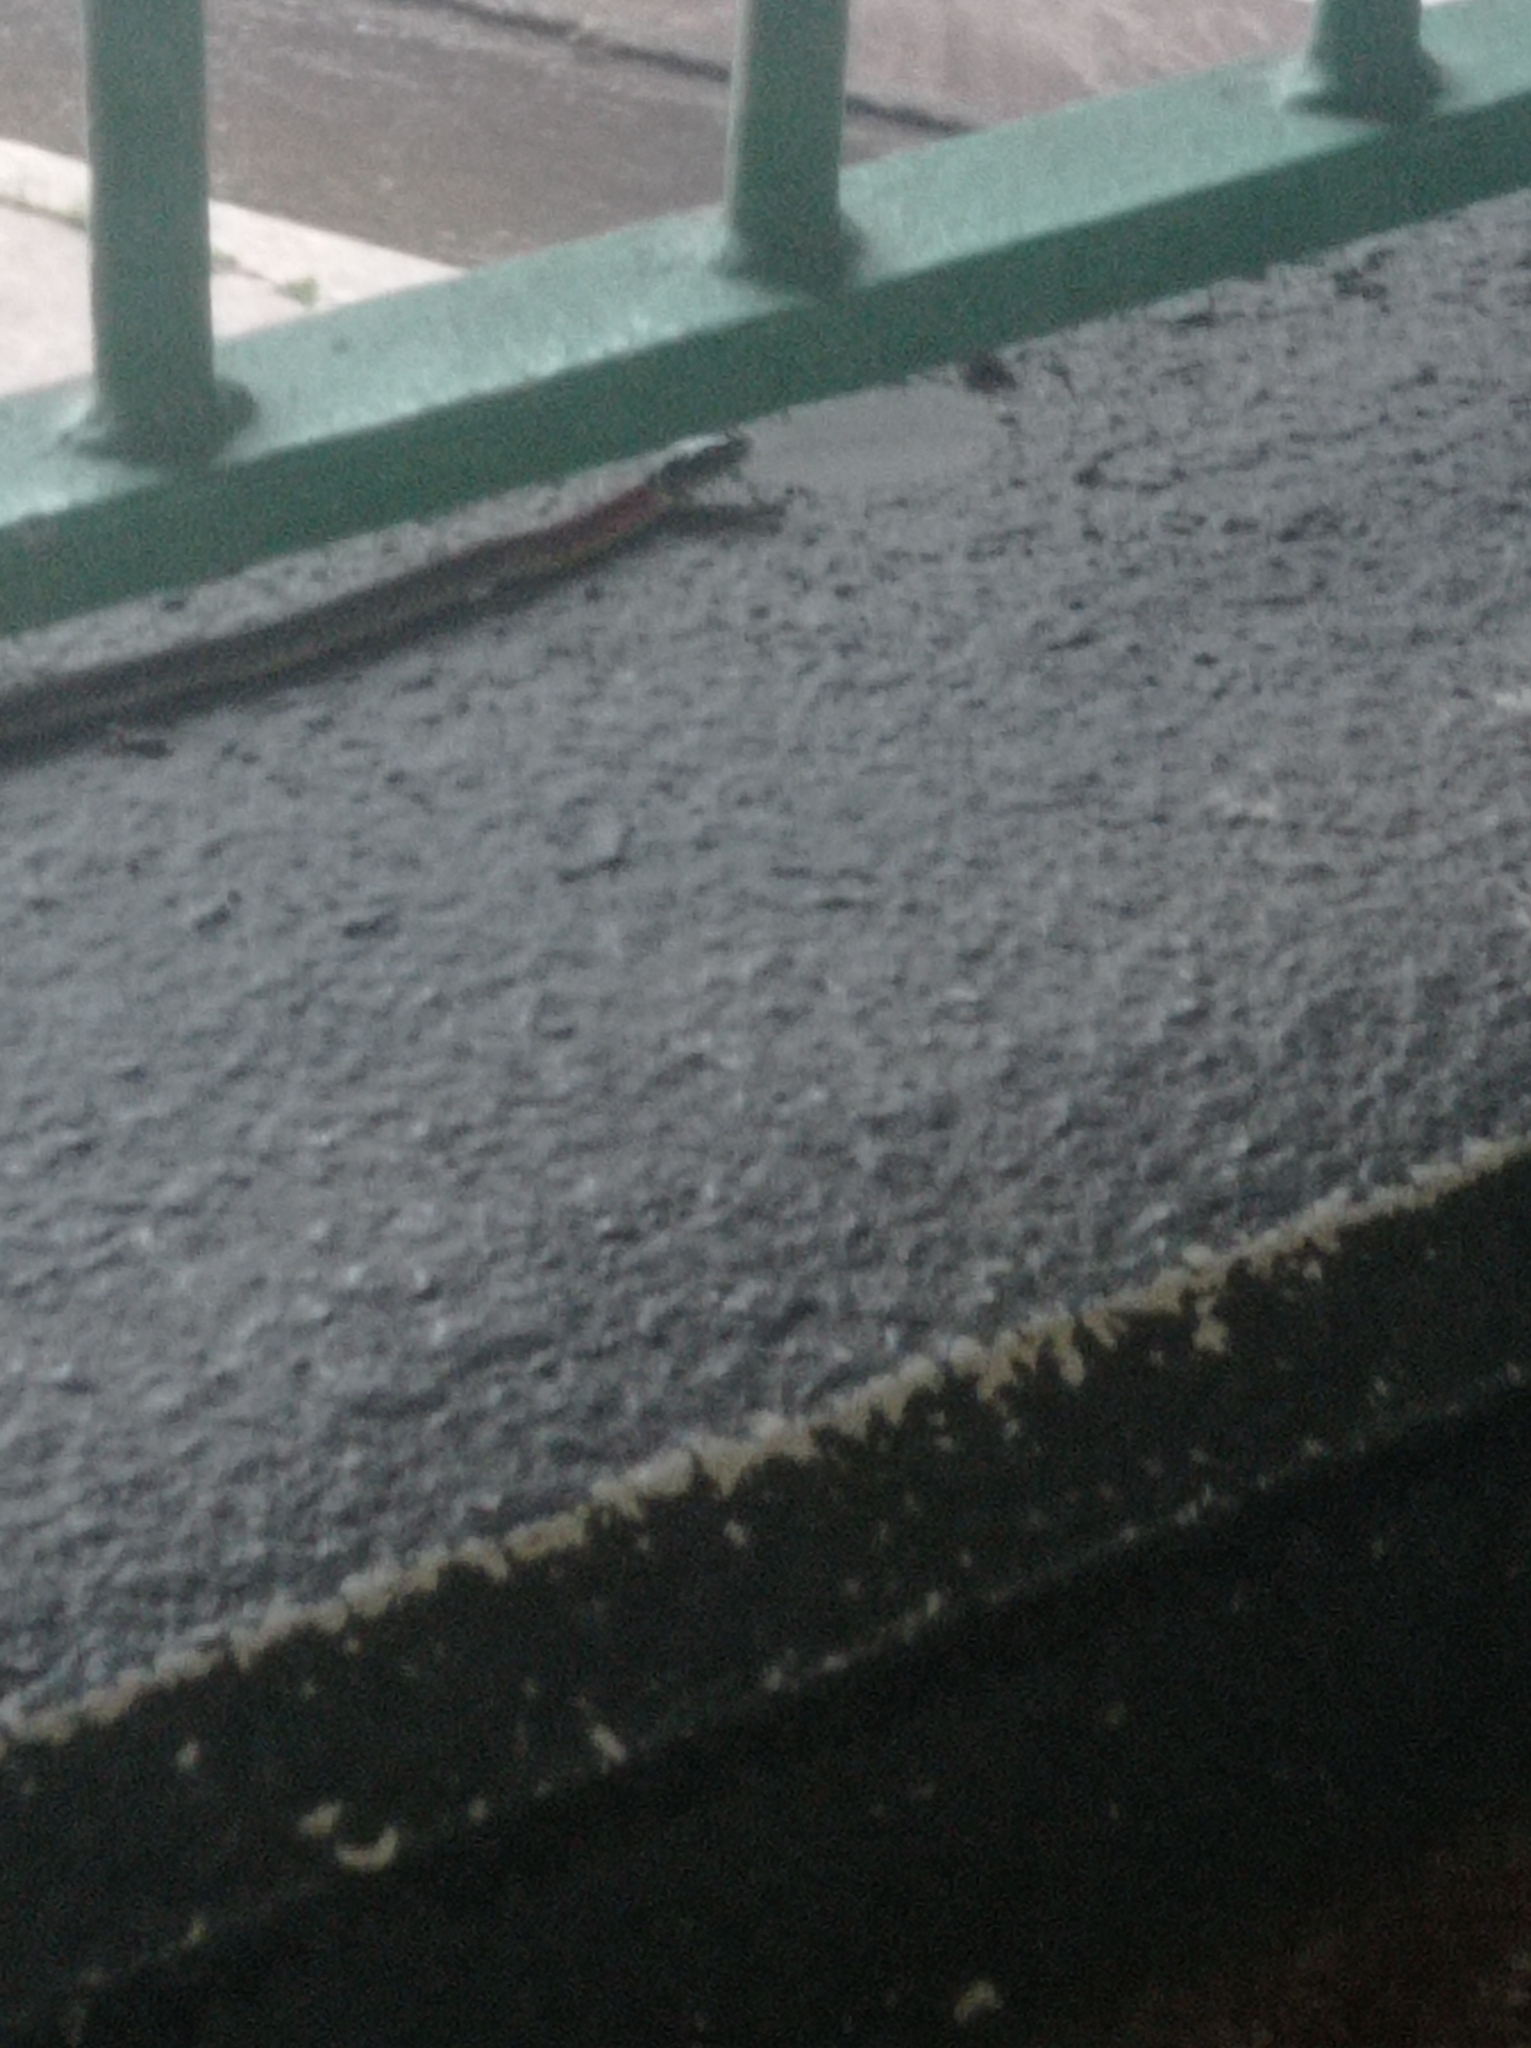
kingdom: Animalia
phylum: Chordata
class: Squamata
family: Colubridae
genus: Rhabdophis
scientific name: Rhabdophis helleri
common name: Heller’s red-necked keelback
